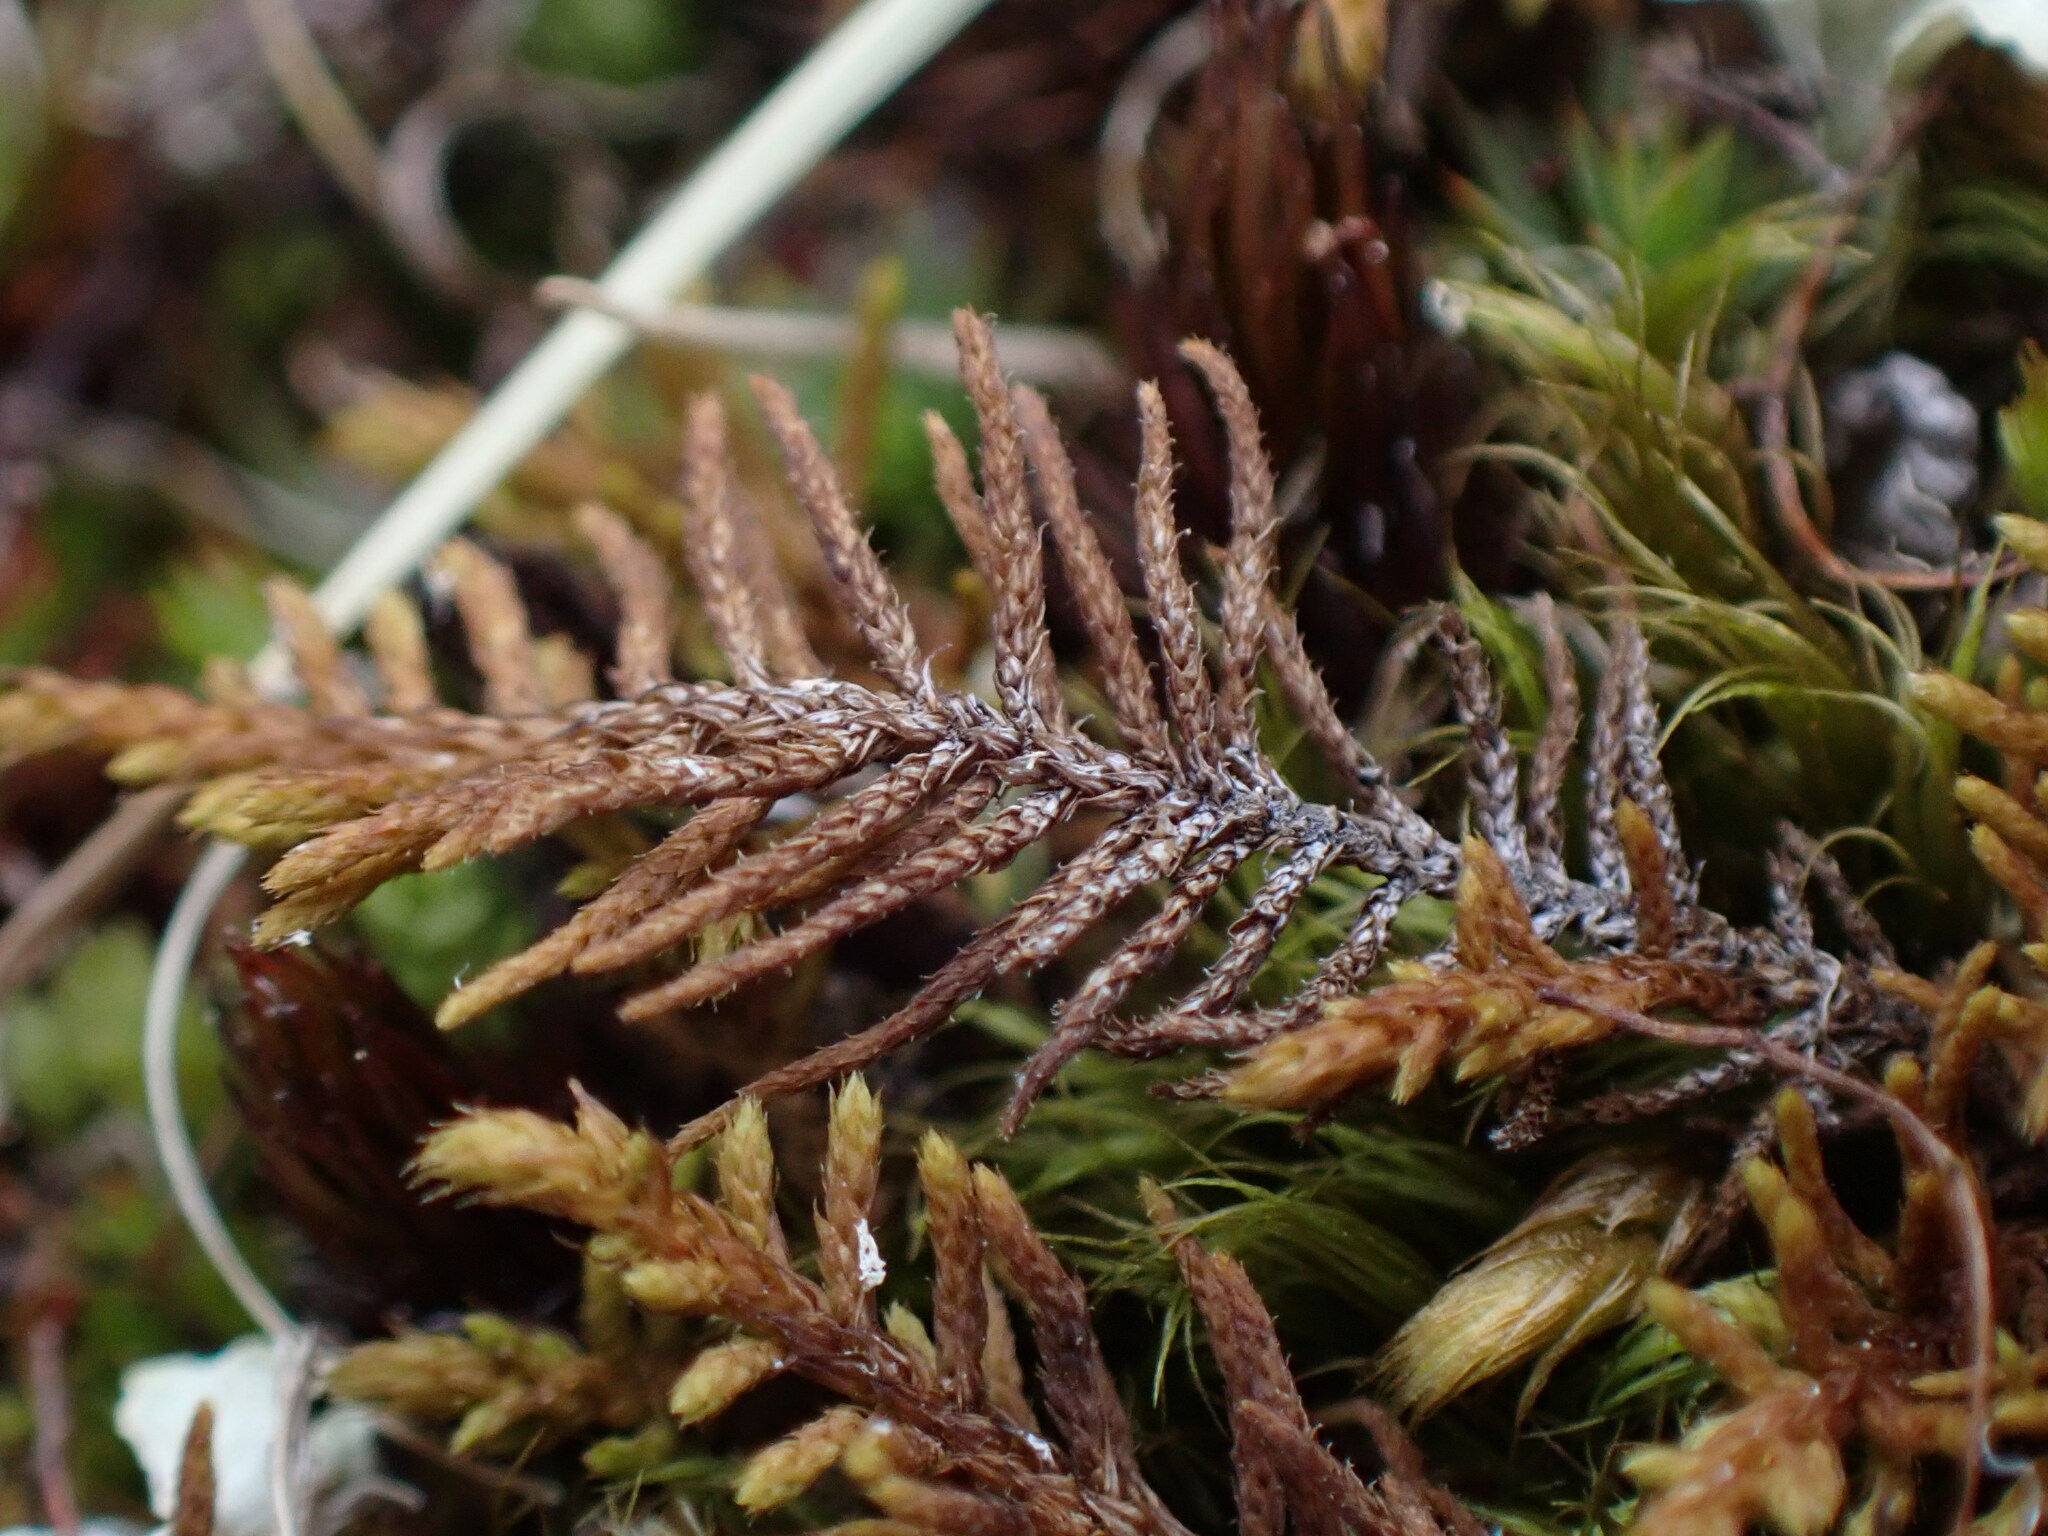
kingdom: Plantae
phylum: Bryophyta
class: Bryopsida
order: Hypnales
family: Thuidiaceae
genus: Abietinella
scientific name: Abietinella abietina
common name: Wiry fern moss
